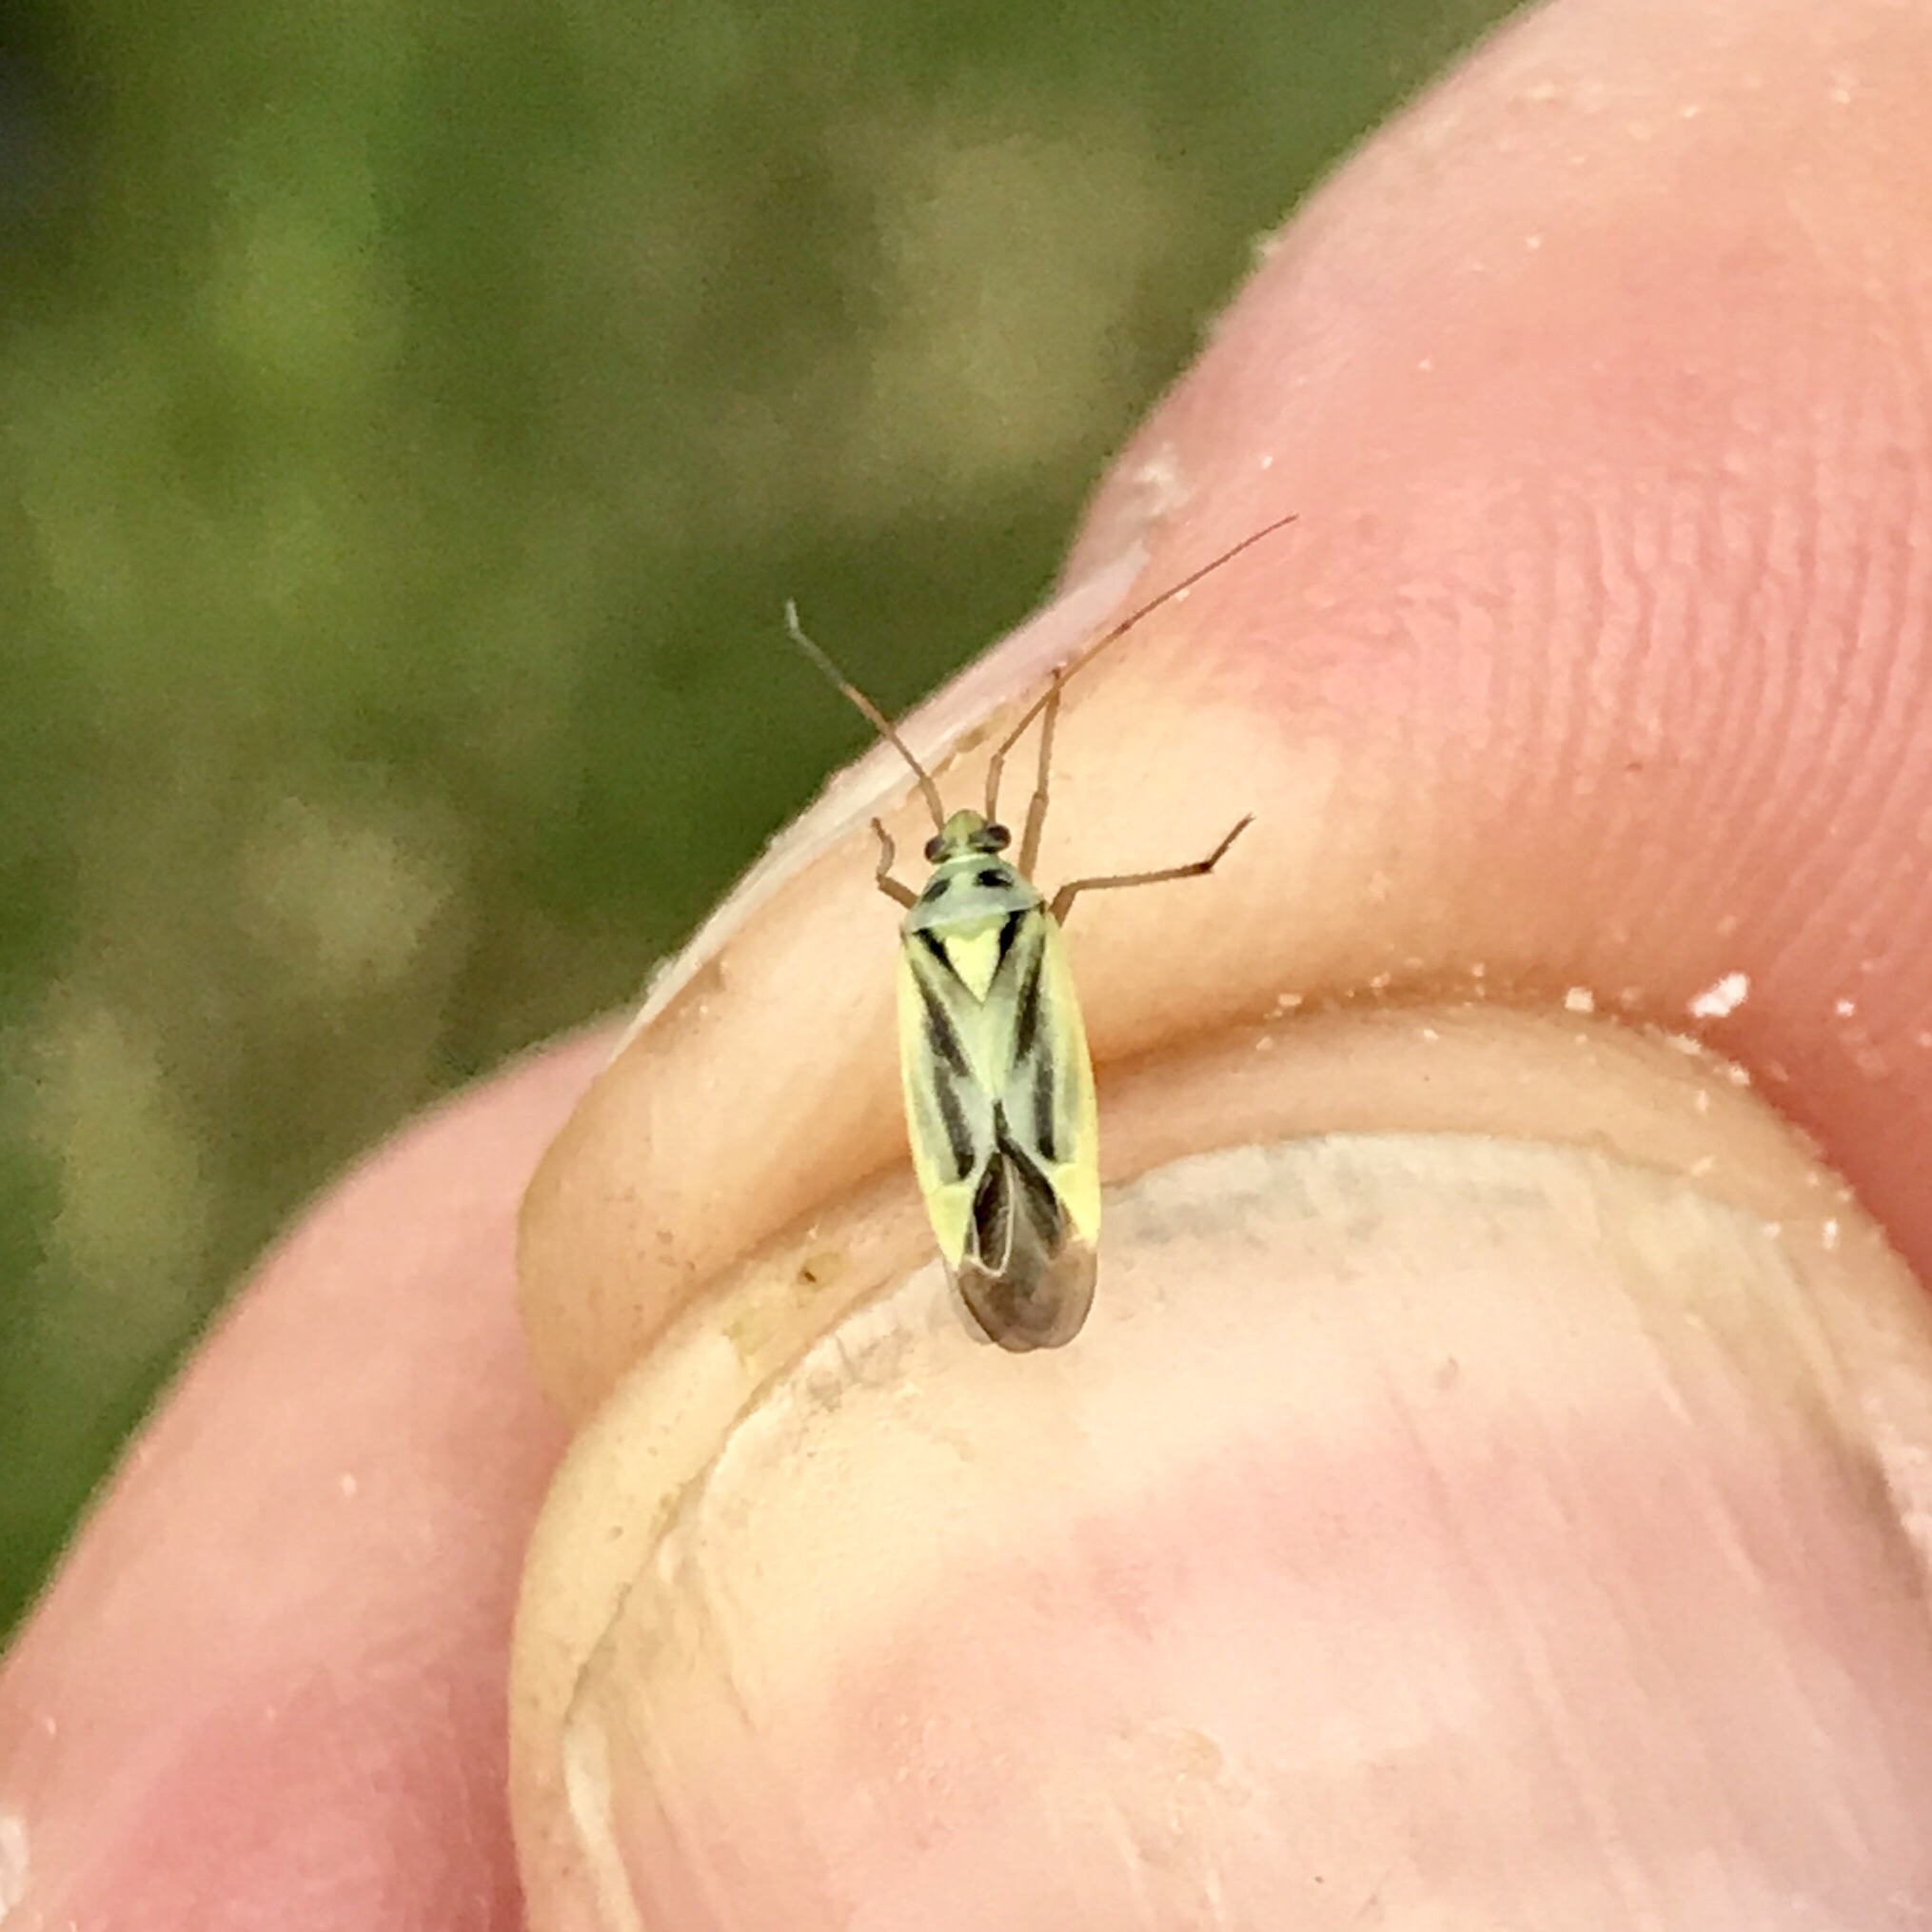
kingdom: Animalia
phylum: Arthropoda
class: Insecta
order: Hemiptera
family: Miridae
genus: Stenotus
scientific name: Stenotus binotatus
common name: Plant bug
